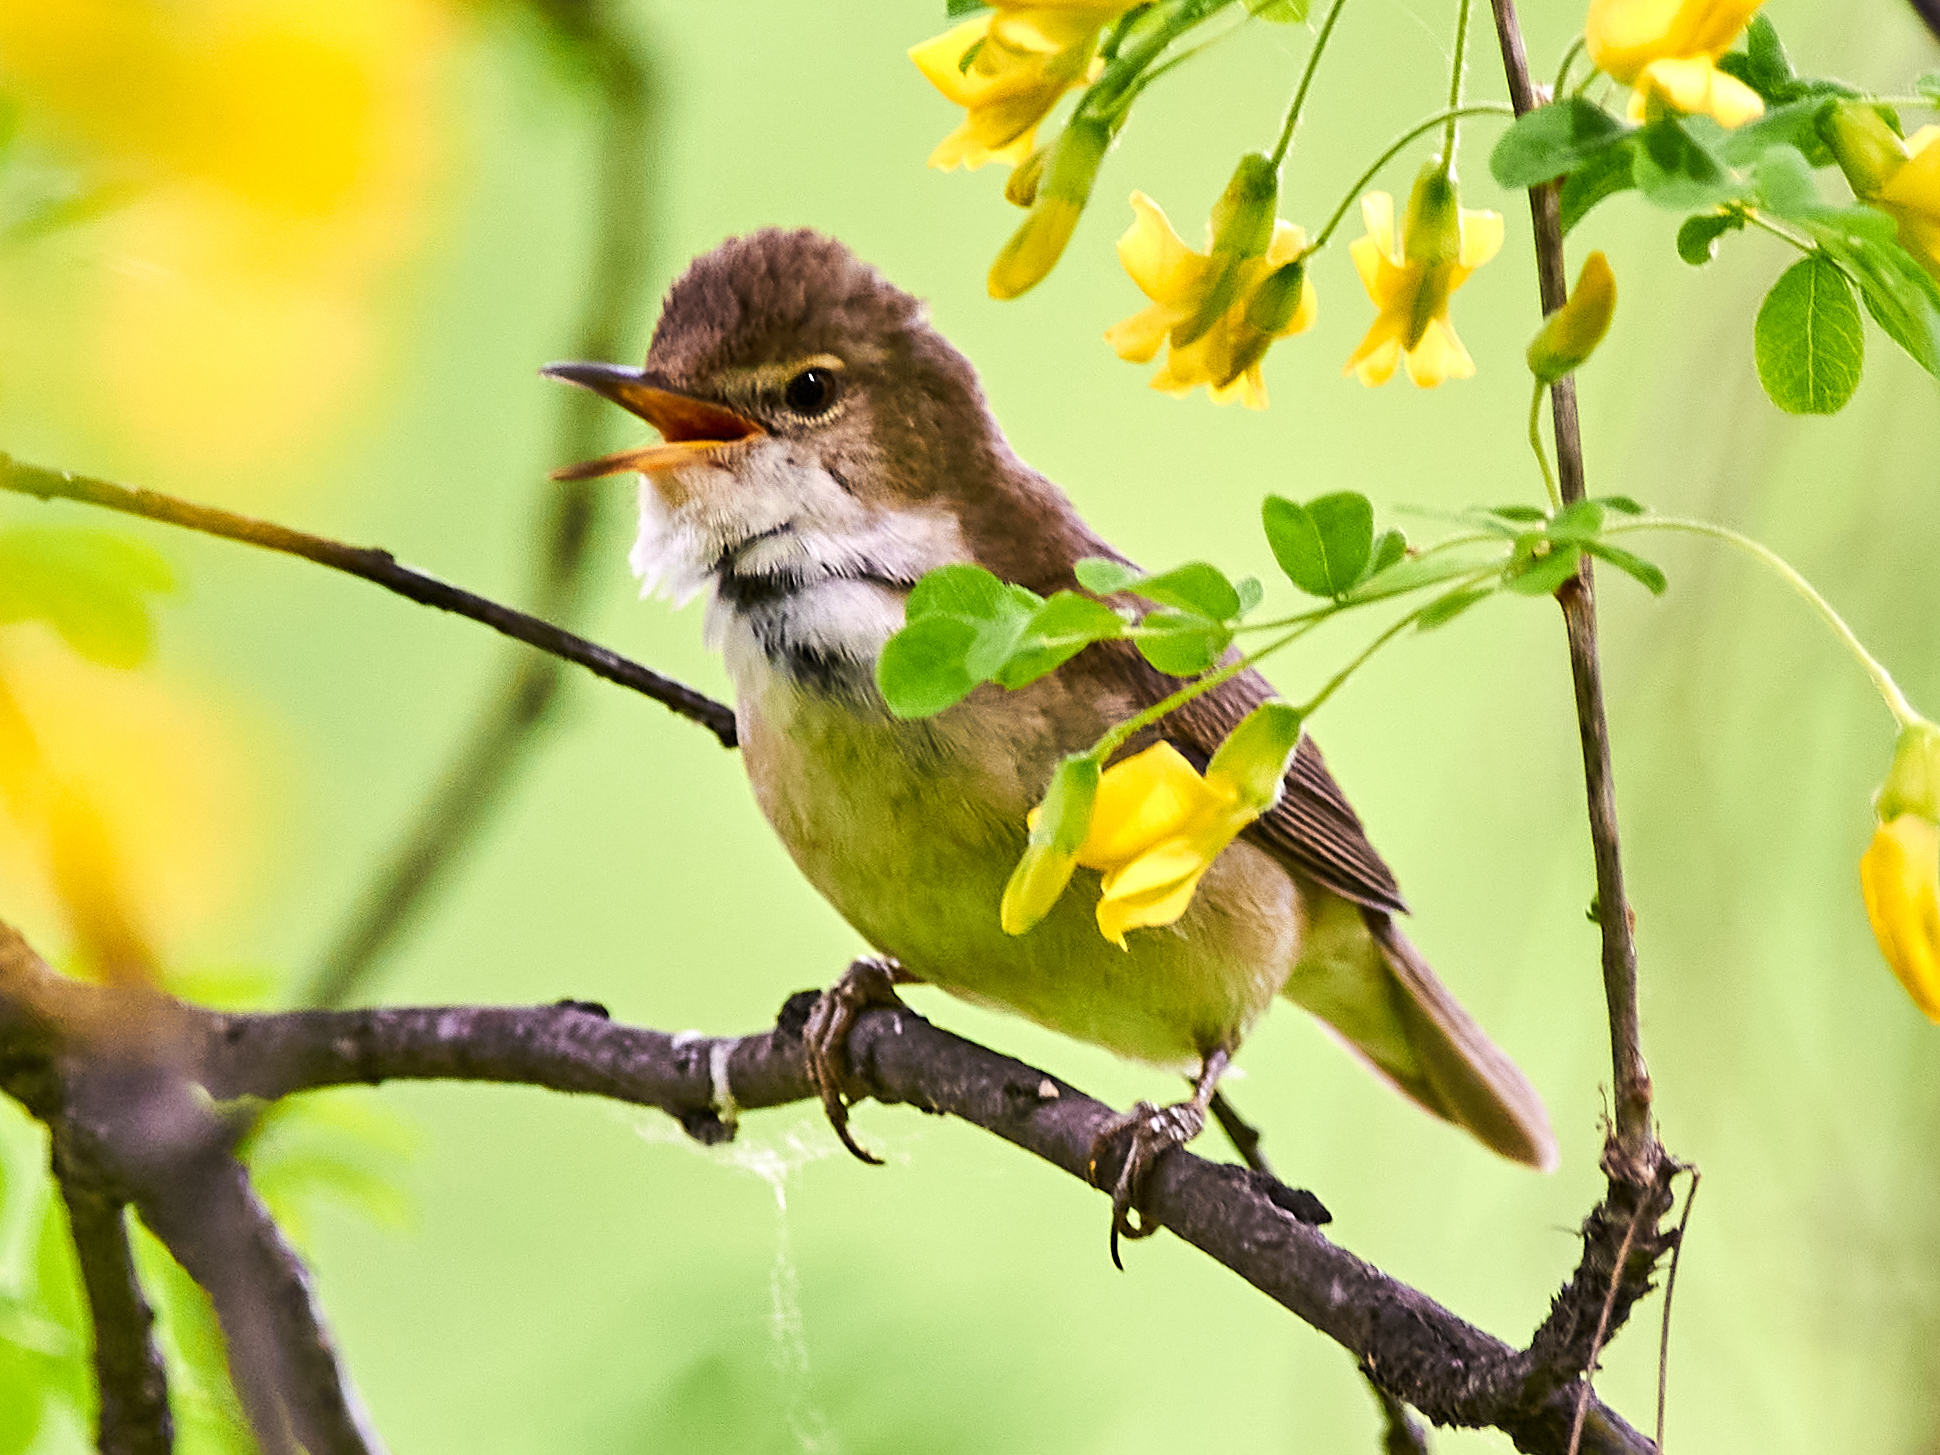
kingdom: Animalia
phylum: Chordata
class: Aves
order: Passeriformes
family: Acrocephalidae
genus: Acrocephalus
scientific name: Acrocephalus dumetorum
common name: Blyth's reed warbler
